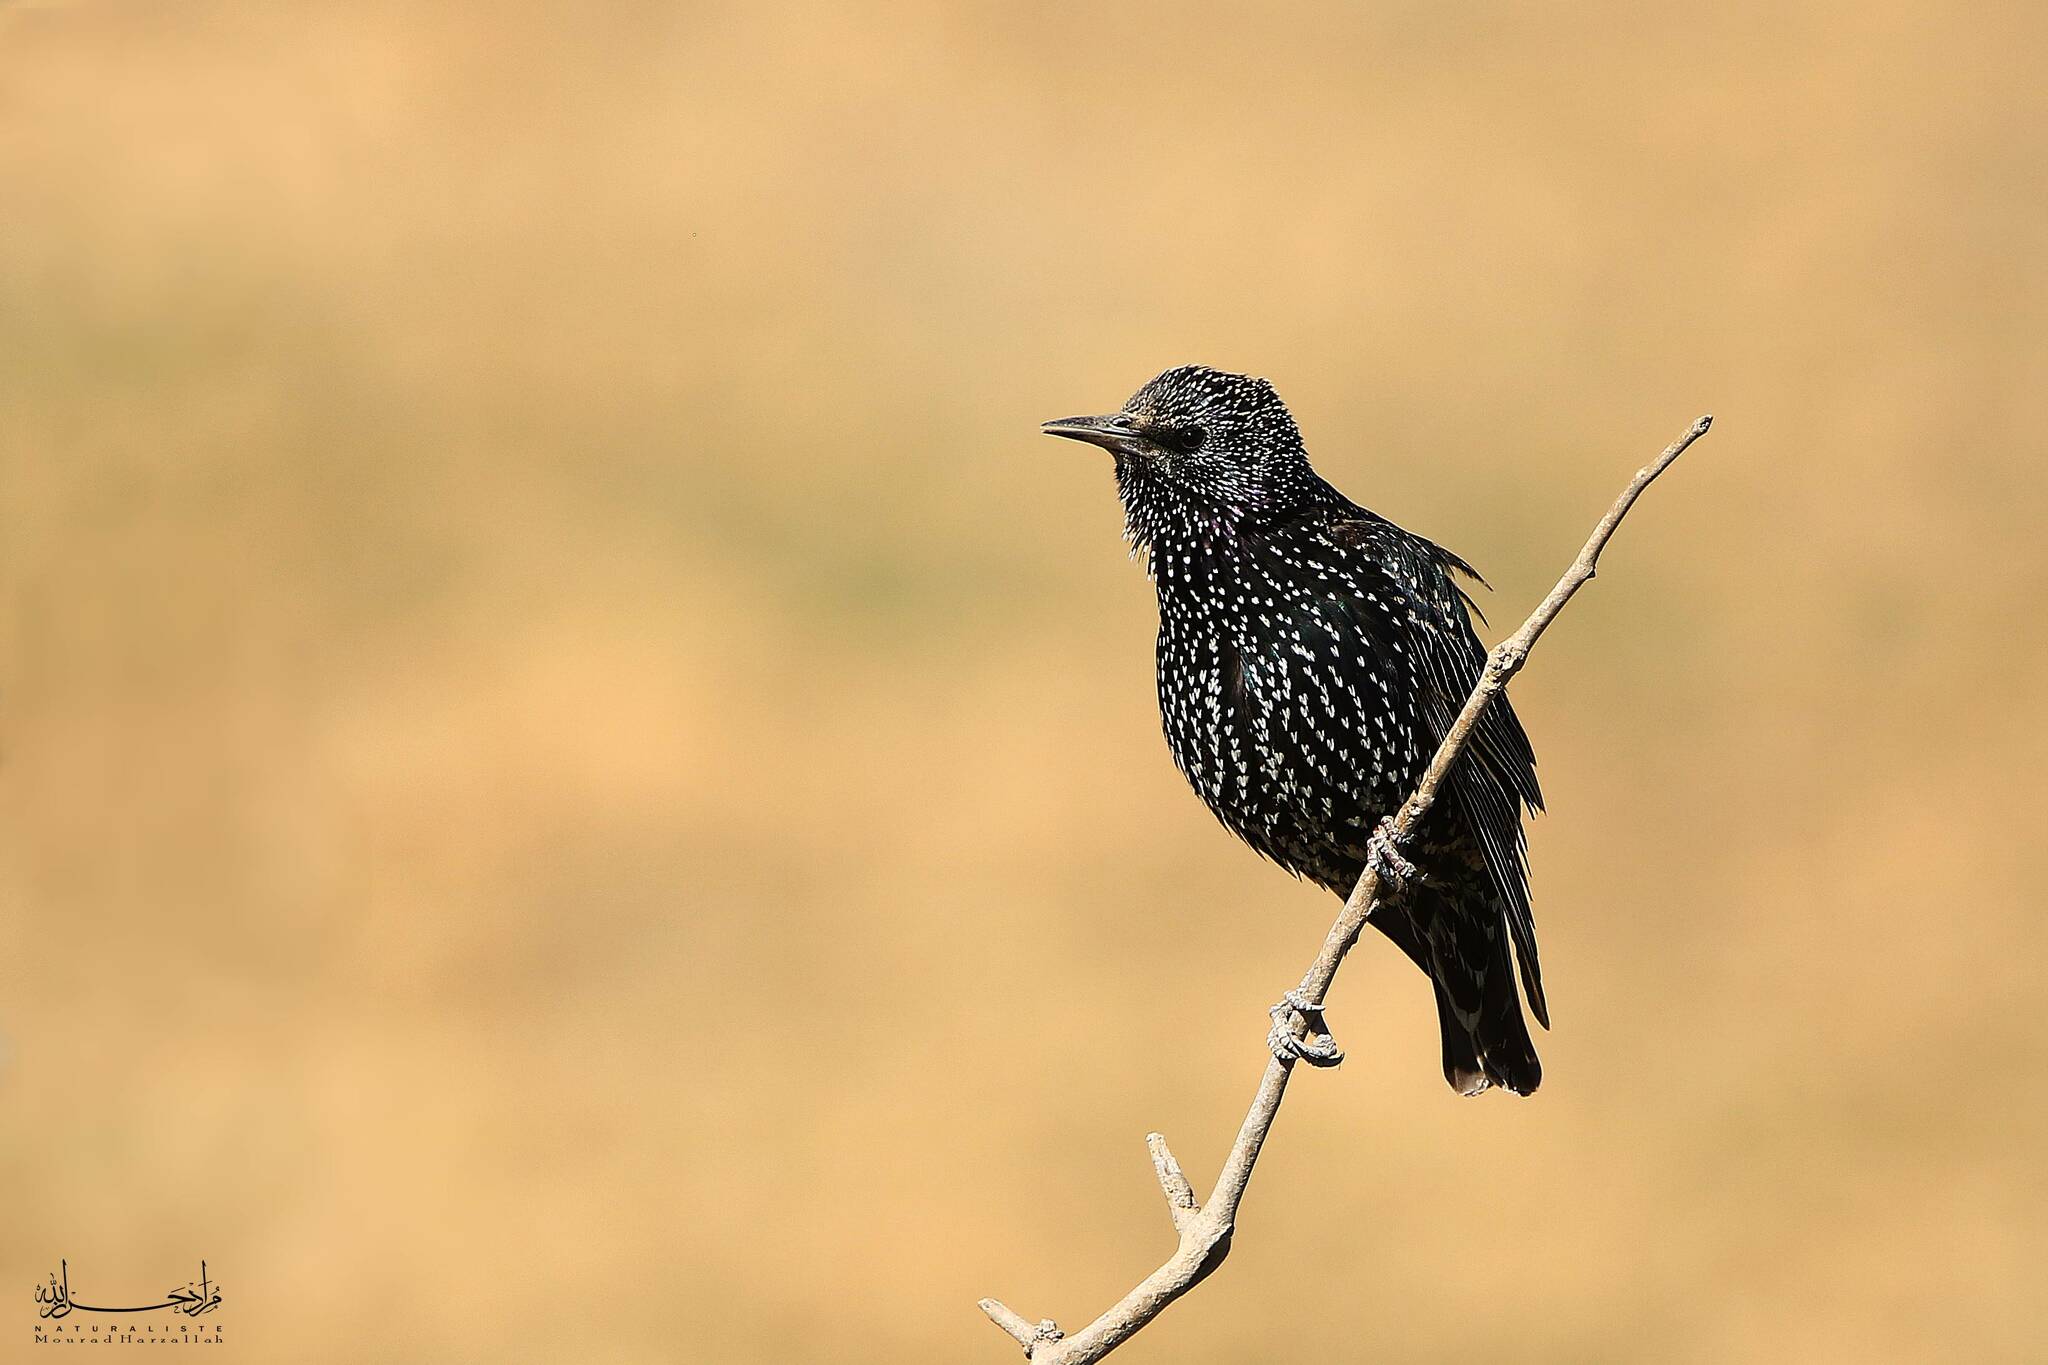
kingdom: Animalia
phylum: Chordata
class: Aves
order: Passeriformes
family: Sturnidae
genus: Sturnus
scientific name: Sturnus vulgaris
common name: Common starling
